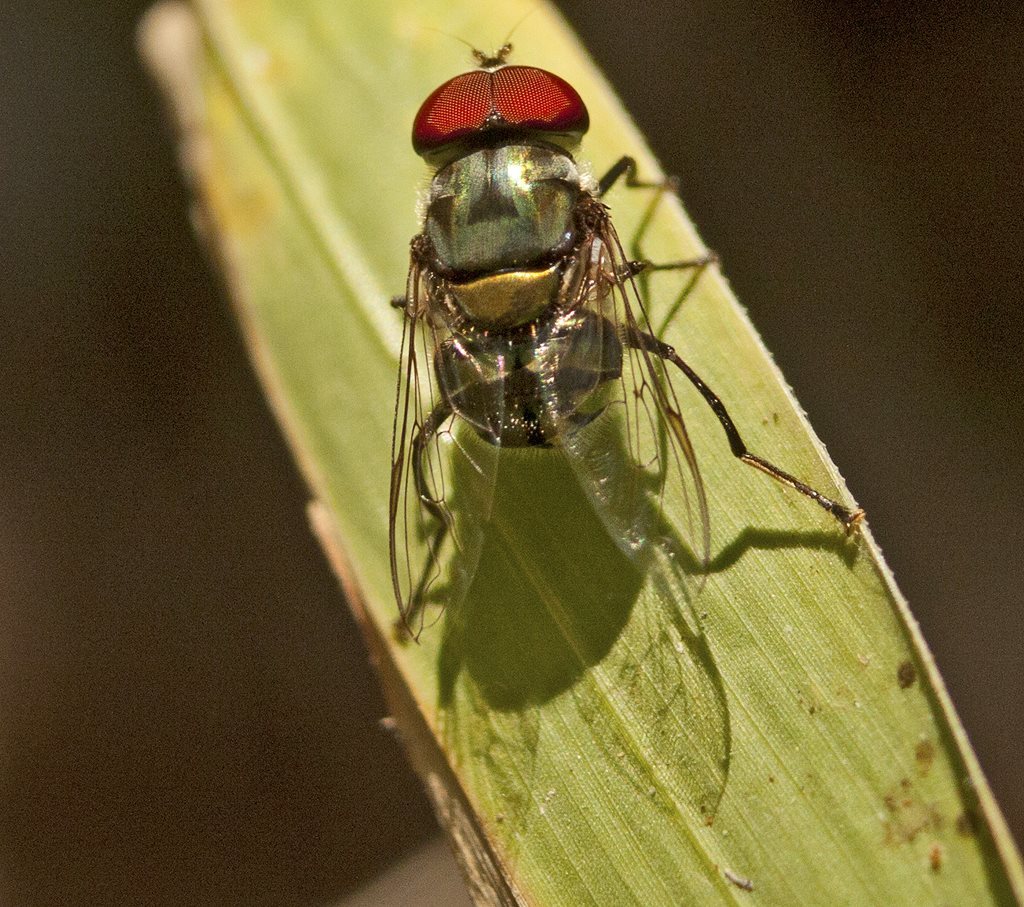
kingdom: Animalia
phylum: Arthropoda
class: Insecta
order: Diptera
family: Syrphidae
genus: Austalis
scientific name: Austalis muscoides
